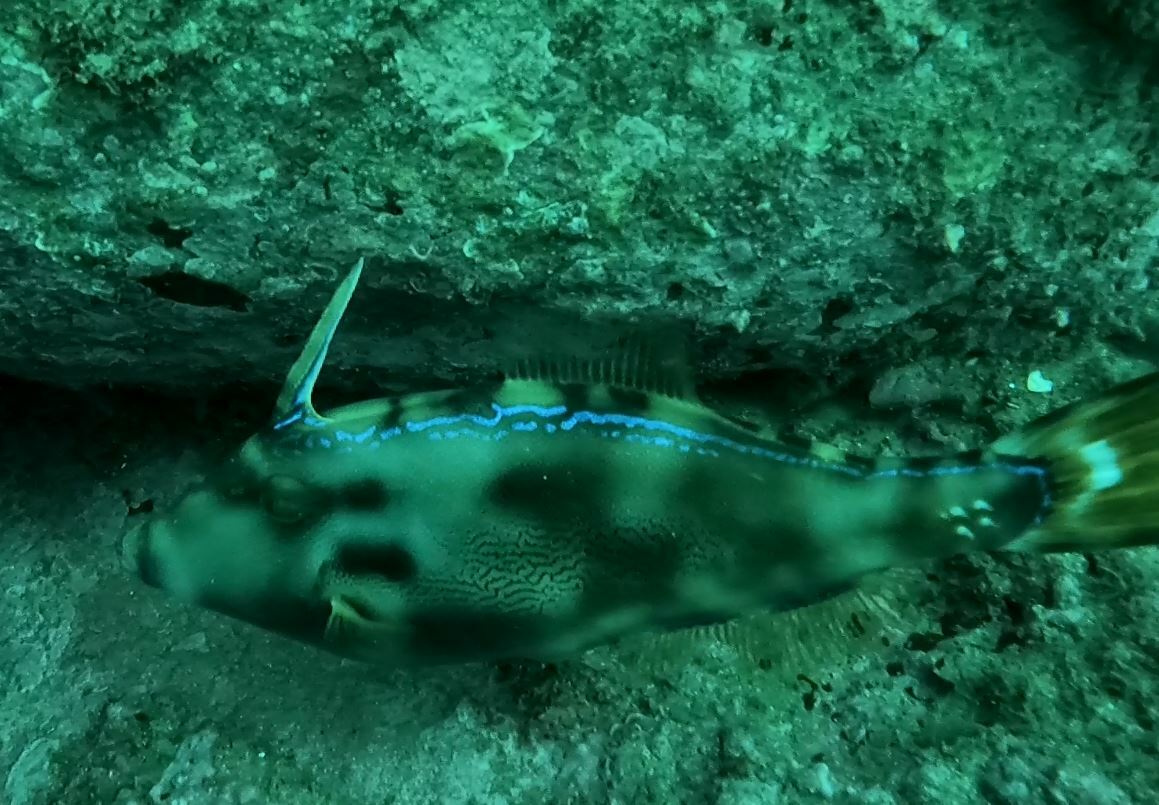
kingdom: Animalia
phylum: Chordata
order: Tetraodontiformes
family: Monacanthidae
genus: Meuschenia
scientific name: Meuschenia trachylepis
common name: Yellowfin leatherjacket
